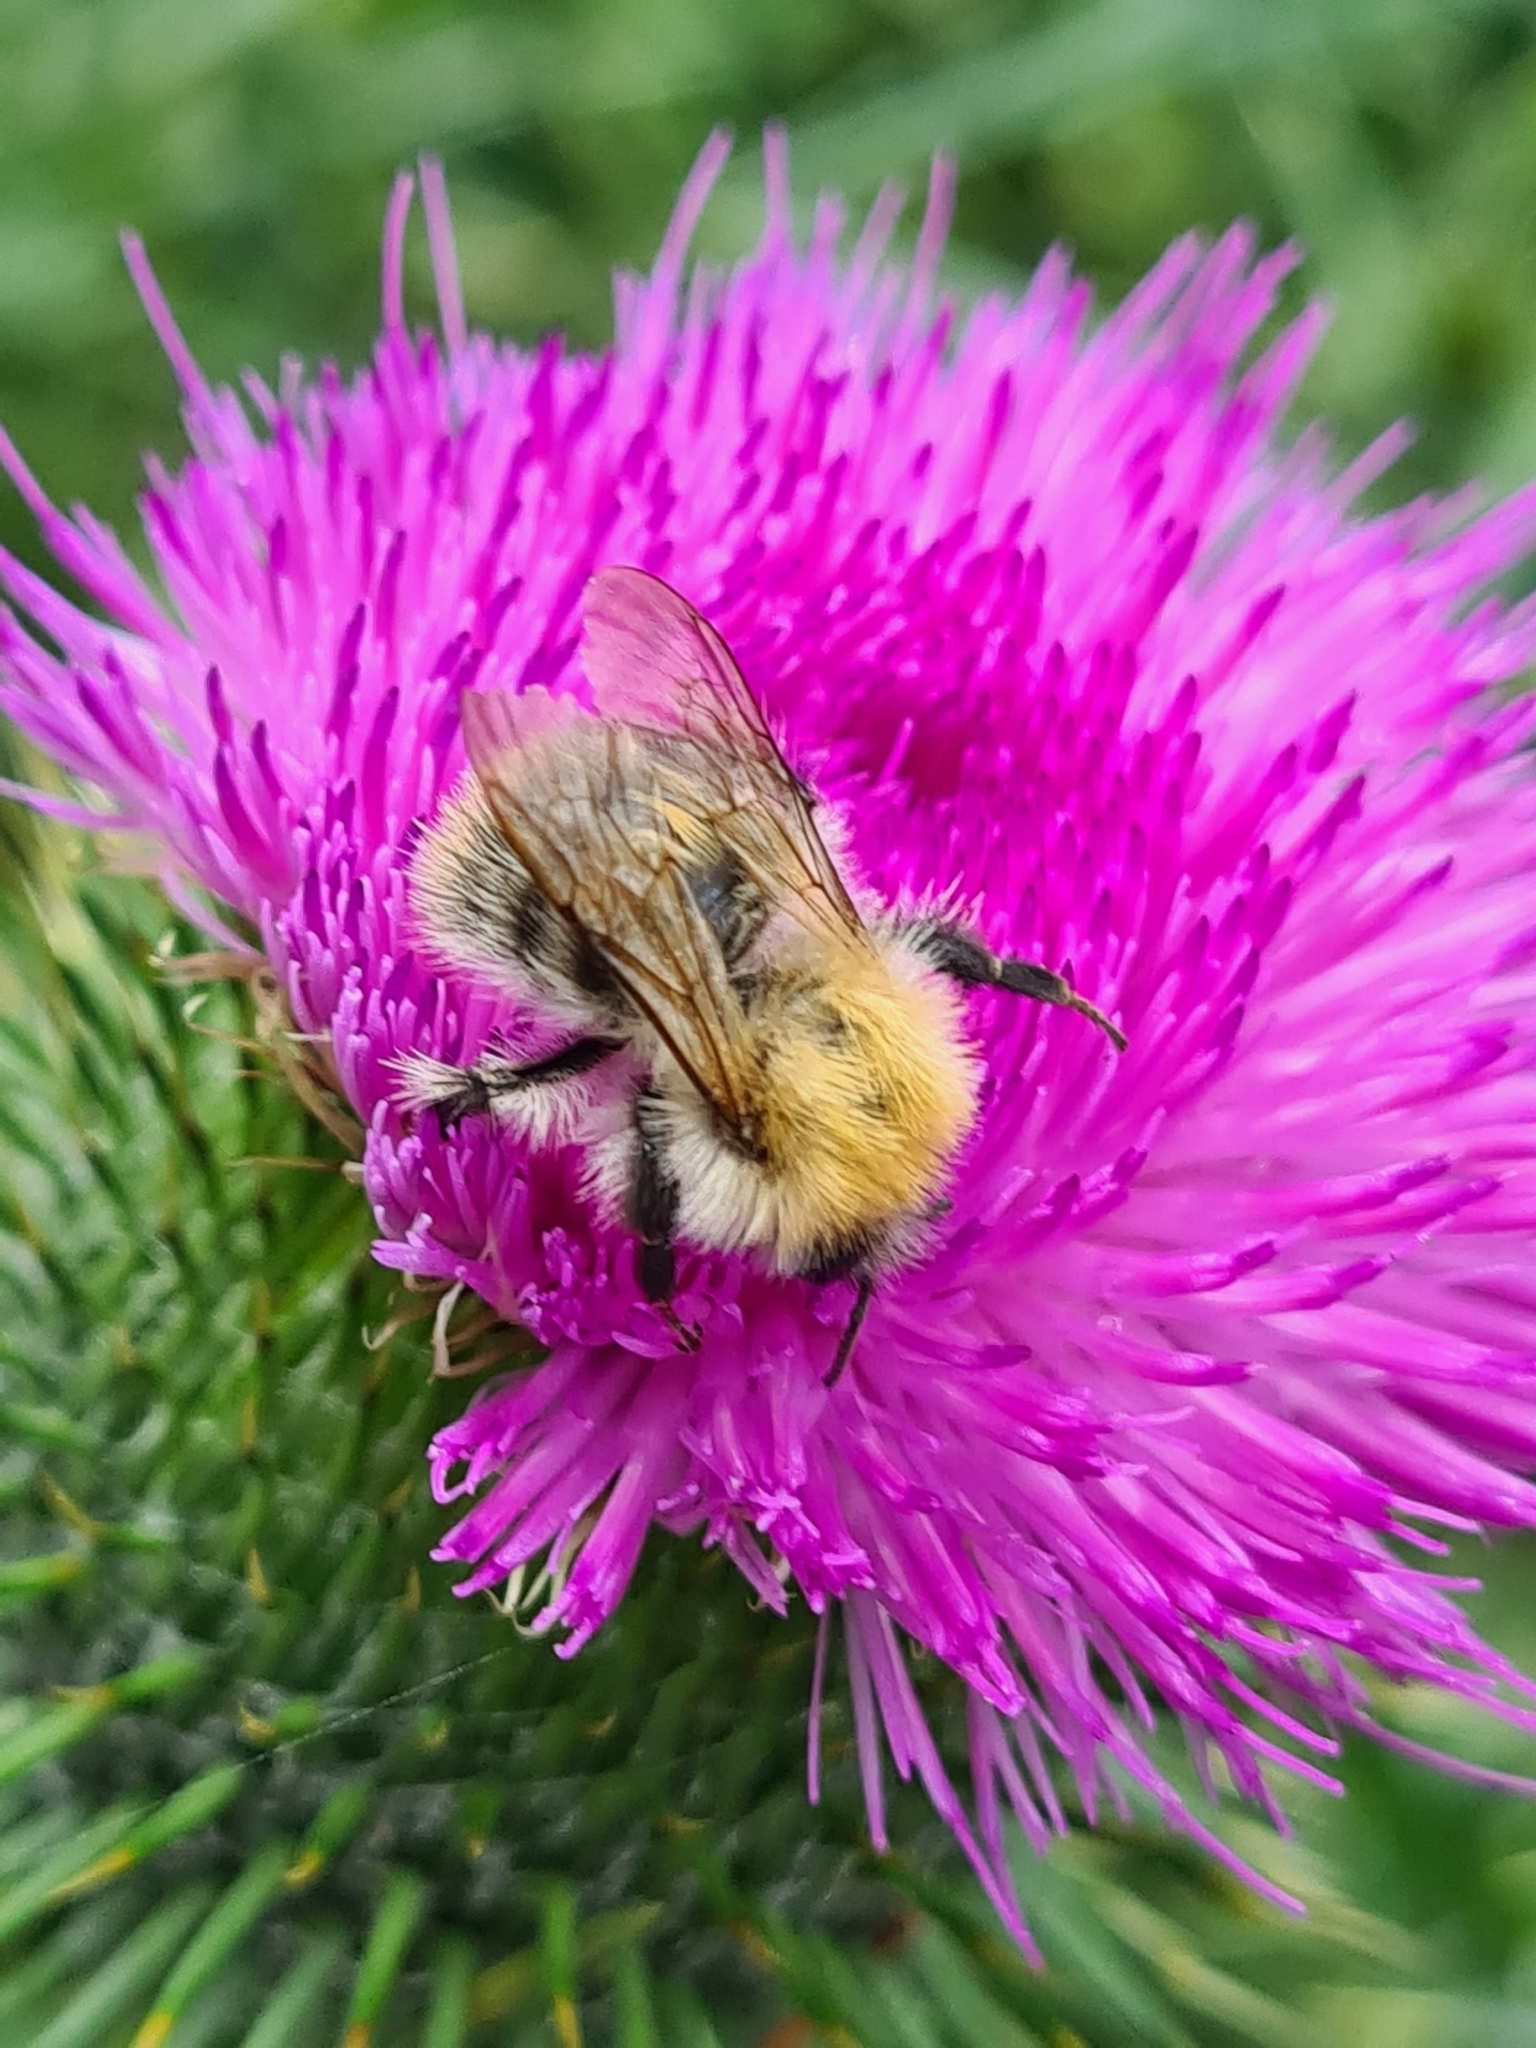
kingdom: Animalia
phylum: Arthropoda
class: Insecta
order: Hymenoptera
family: Apidae
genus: Bombus
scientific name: Bombus pascuorum
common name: Common carder bee
